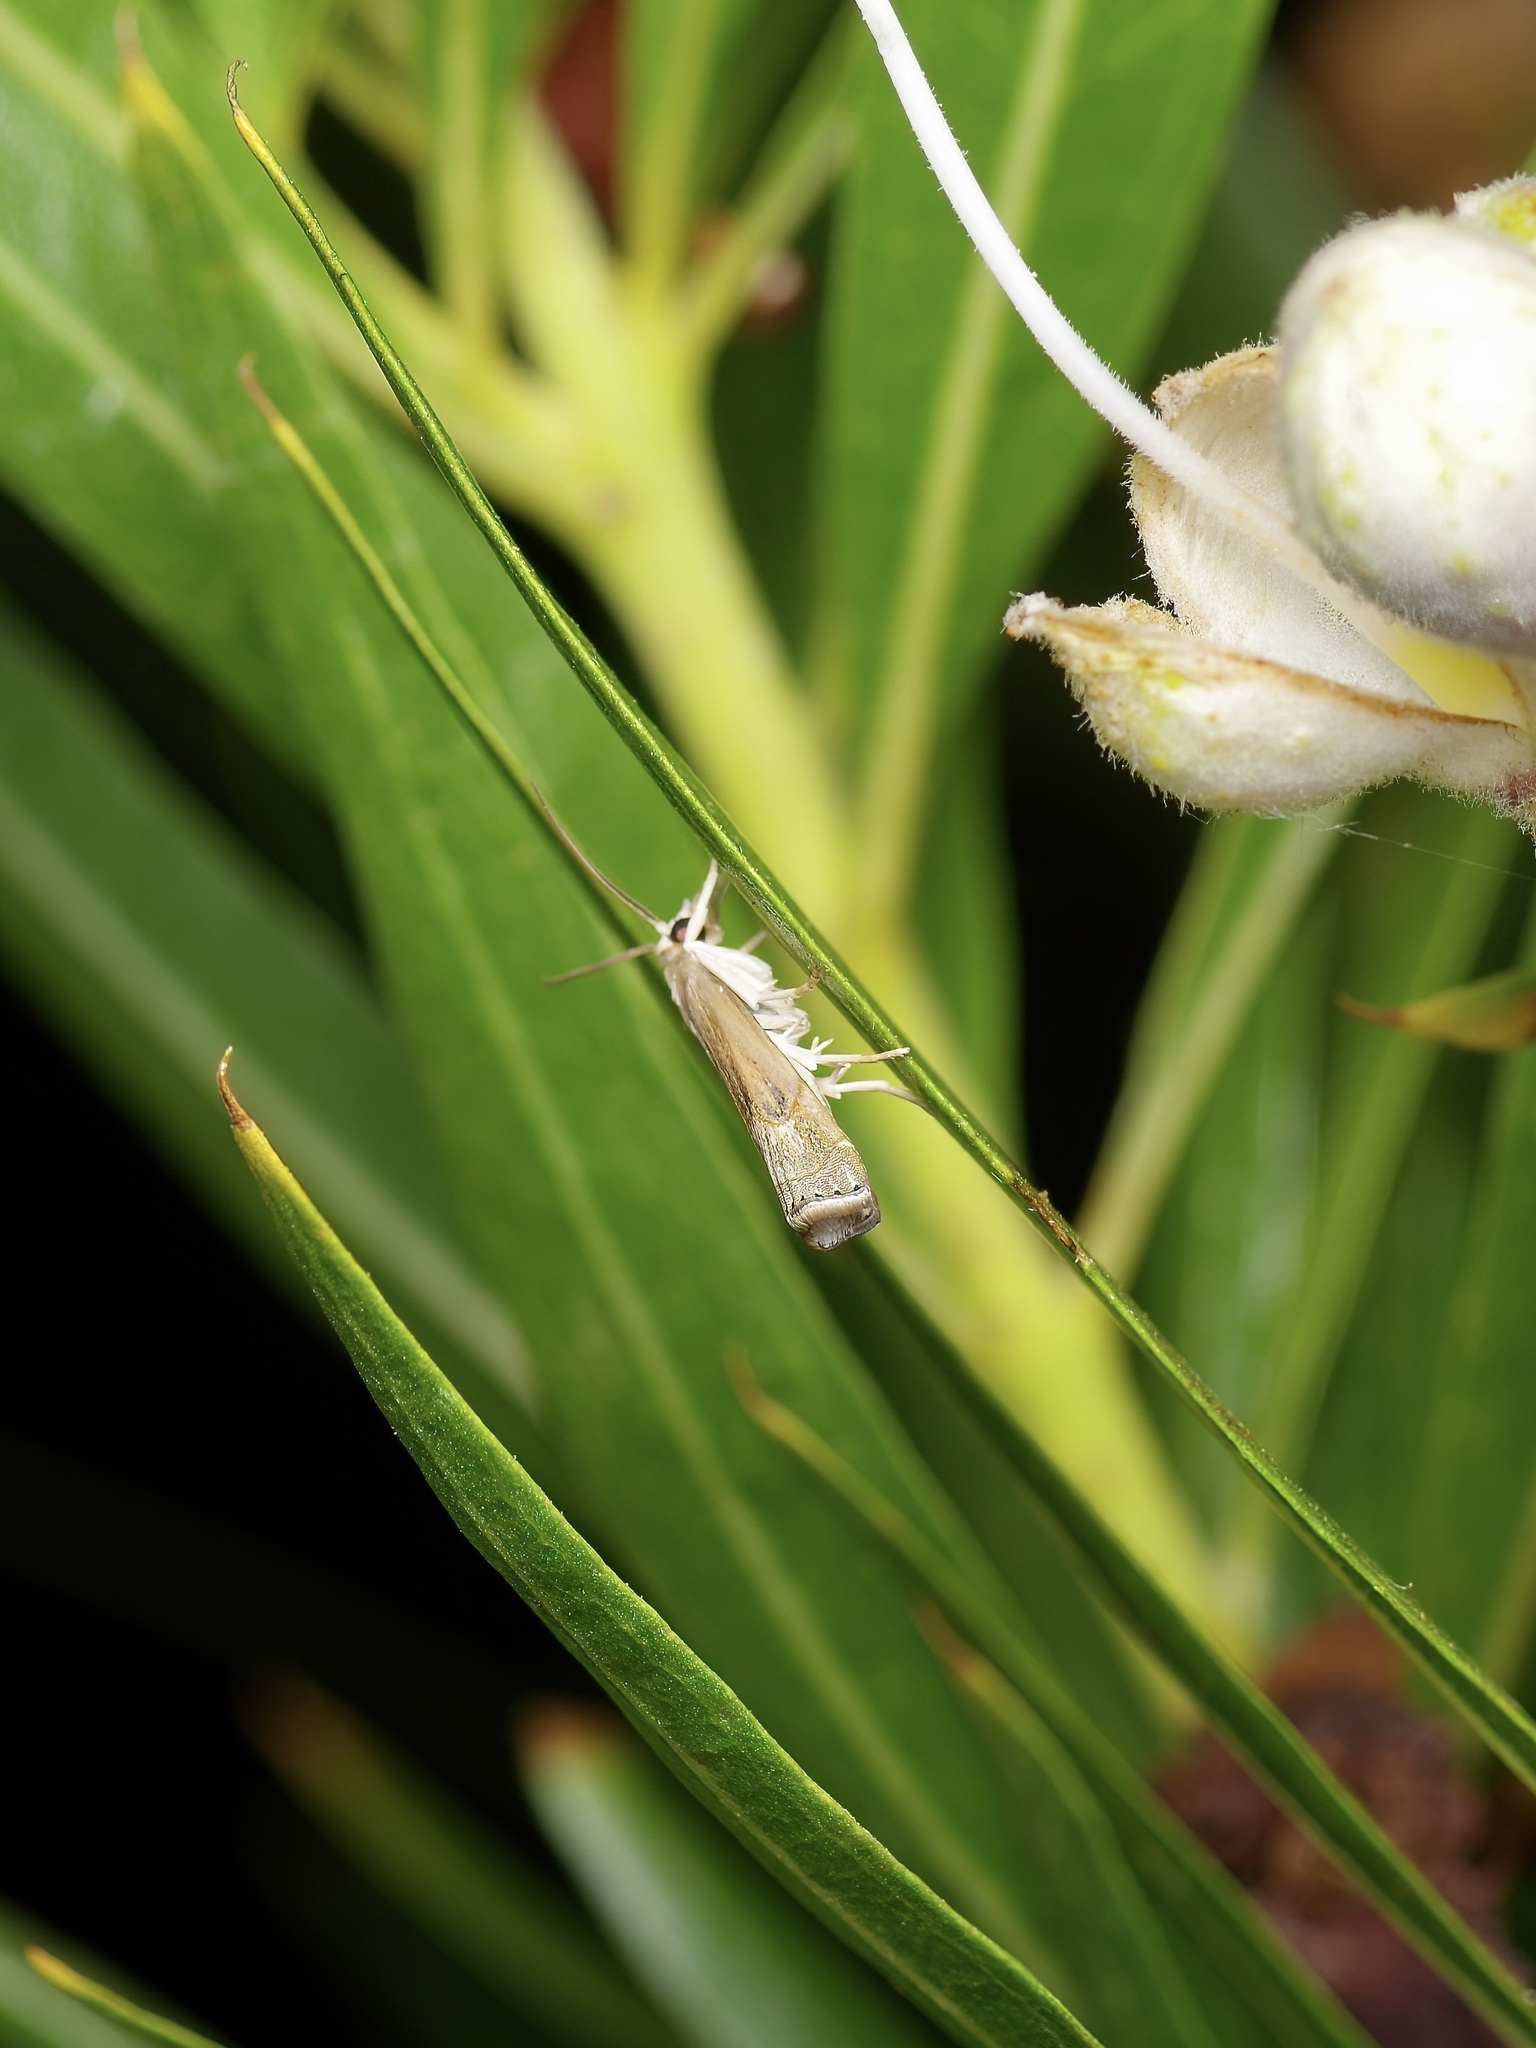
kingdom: Animalia
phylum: Arthropoda
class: Insecta
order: Lepidoptera
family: Crambidae
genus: Parapediasia
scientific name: Parapediasia teterellus
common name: Bluegrass webworm moth
